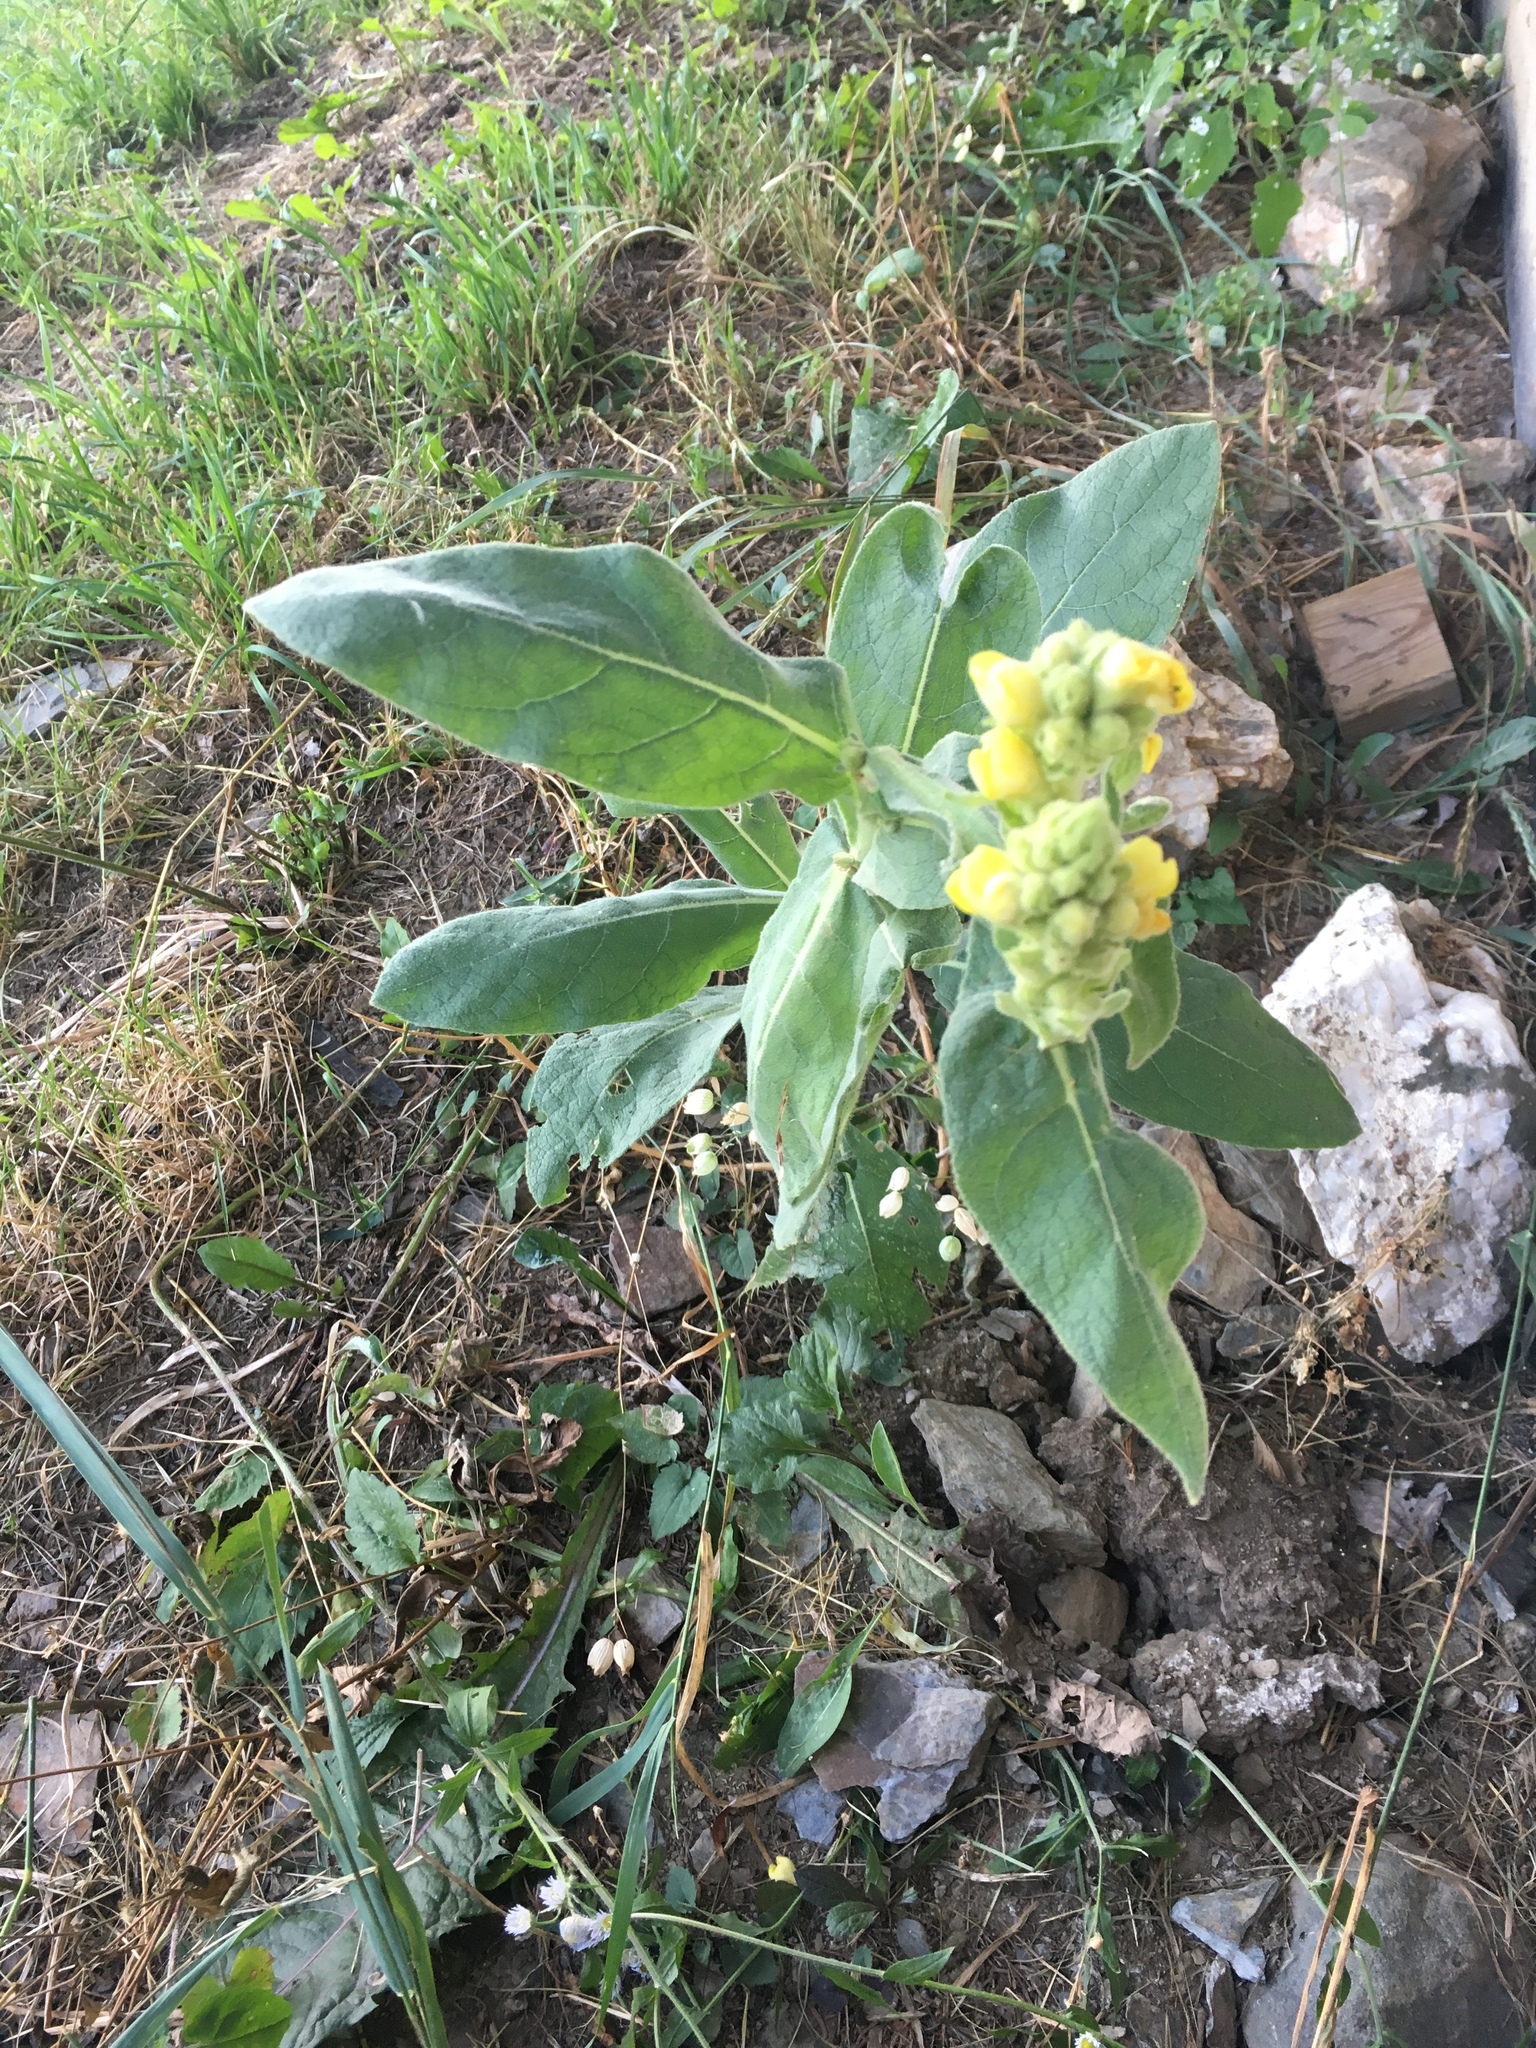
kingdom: Plantae
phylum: Tracheophyta
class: Magnoliopsida
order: Lamiales
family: Scrophulariaceae
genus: Verbascum
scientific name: Verbascum thapsus
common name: Common mullein
